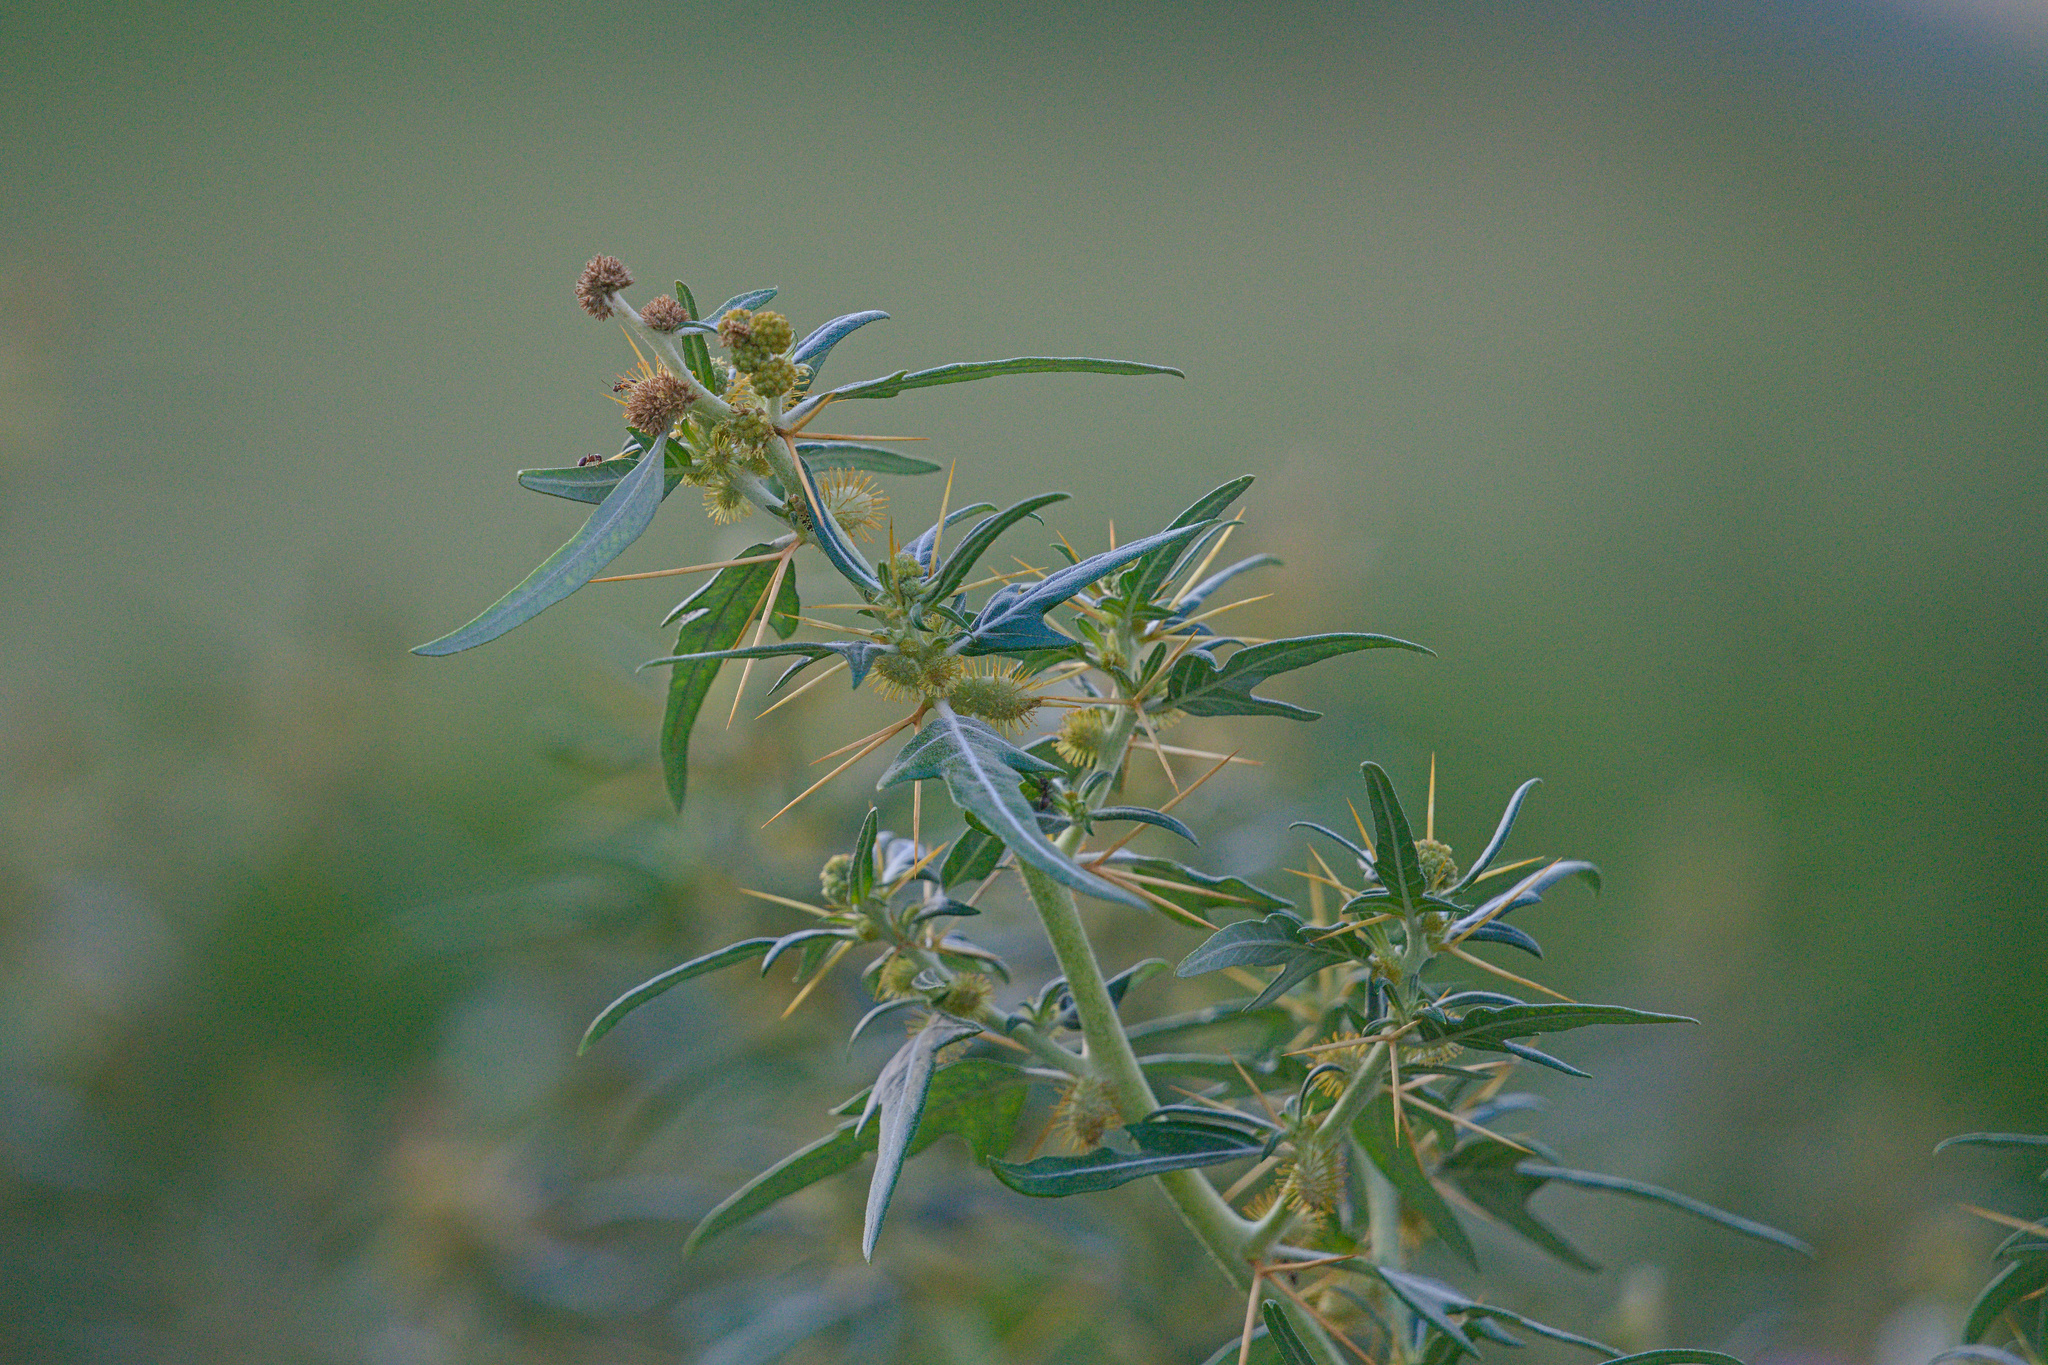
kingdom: Plantae
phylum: Tracheophyta
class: Magnoliopsida
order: Asterales
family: Asteraceae
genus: Xanthium
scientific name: Xanthium spinosum
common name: Spiny cocklebur
